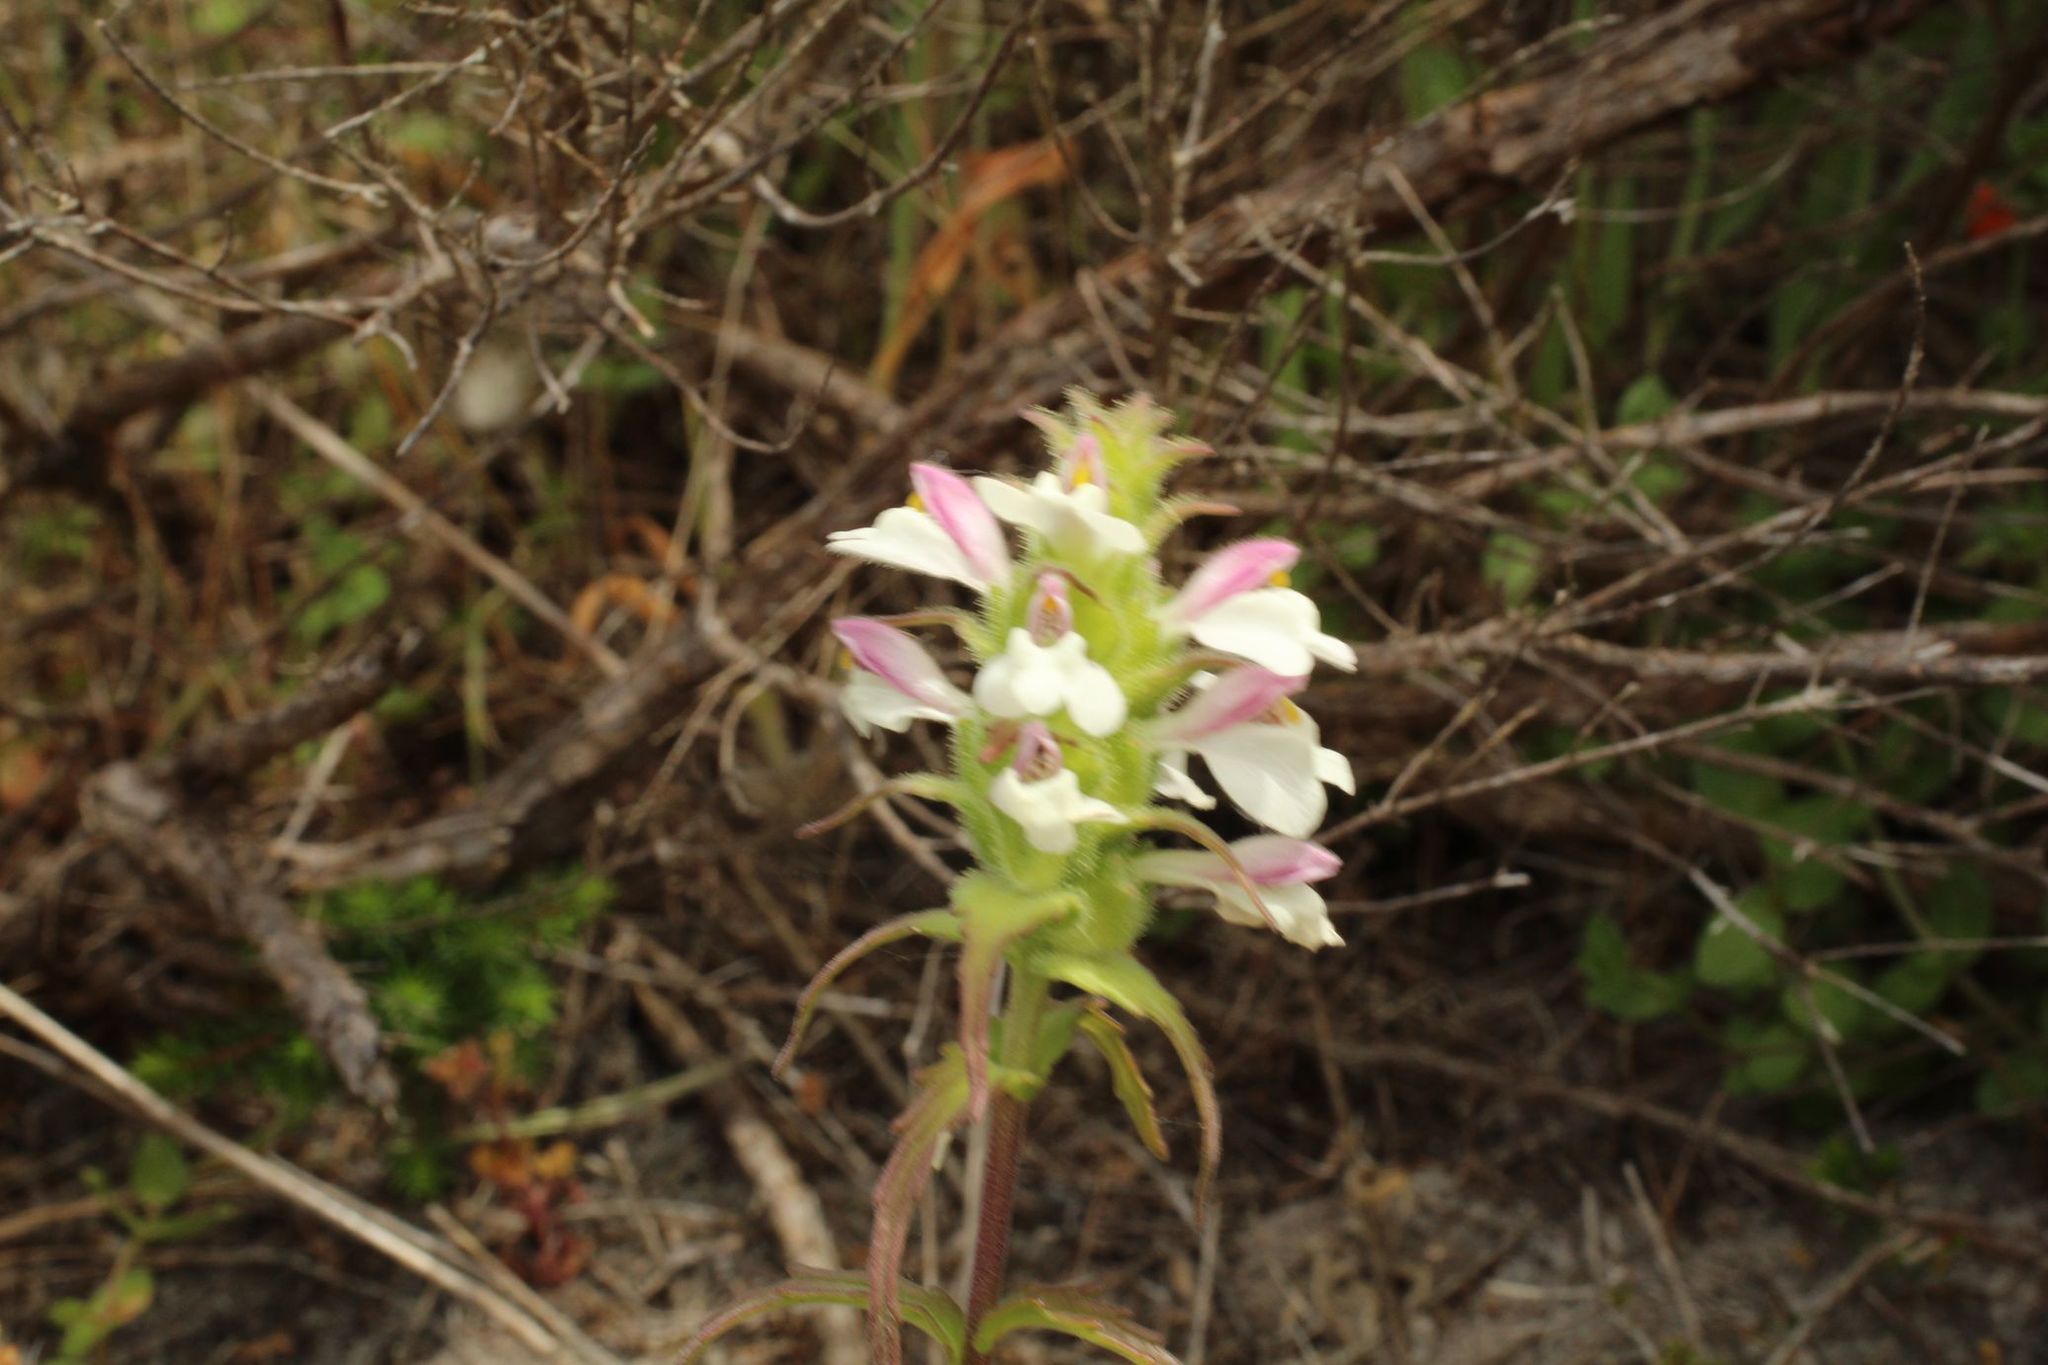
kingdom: Plantae
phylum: Tracheophyta
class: Magnoliopsida
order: Lamiales
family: Orobanchaceae
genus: Bellardia
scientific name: Bellardia trixago
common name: Mediterranean lineseed
